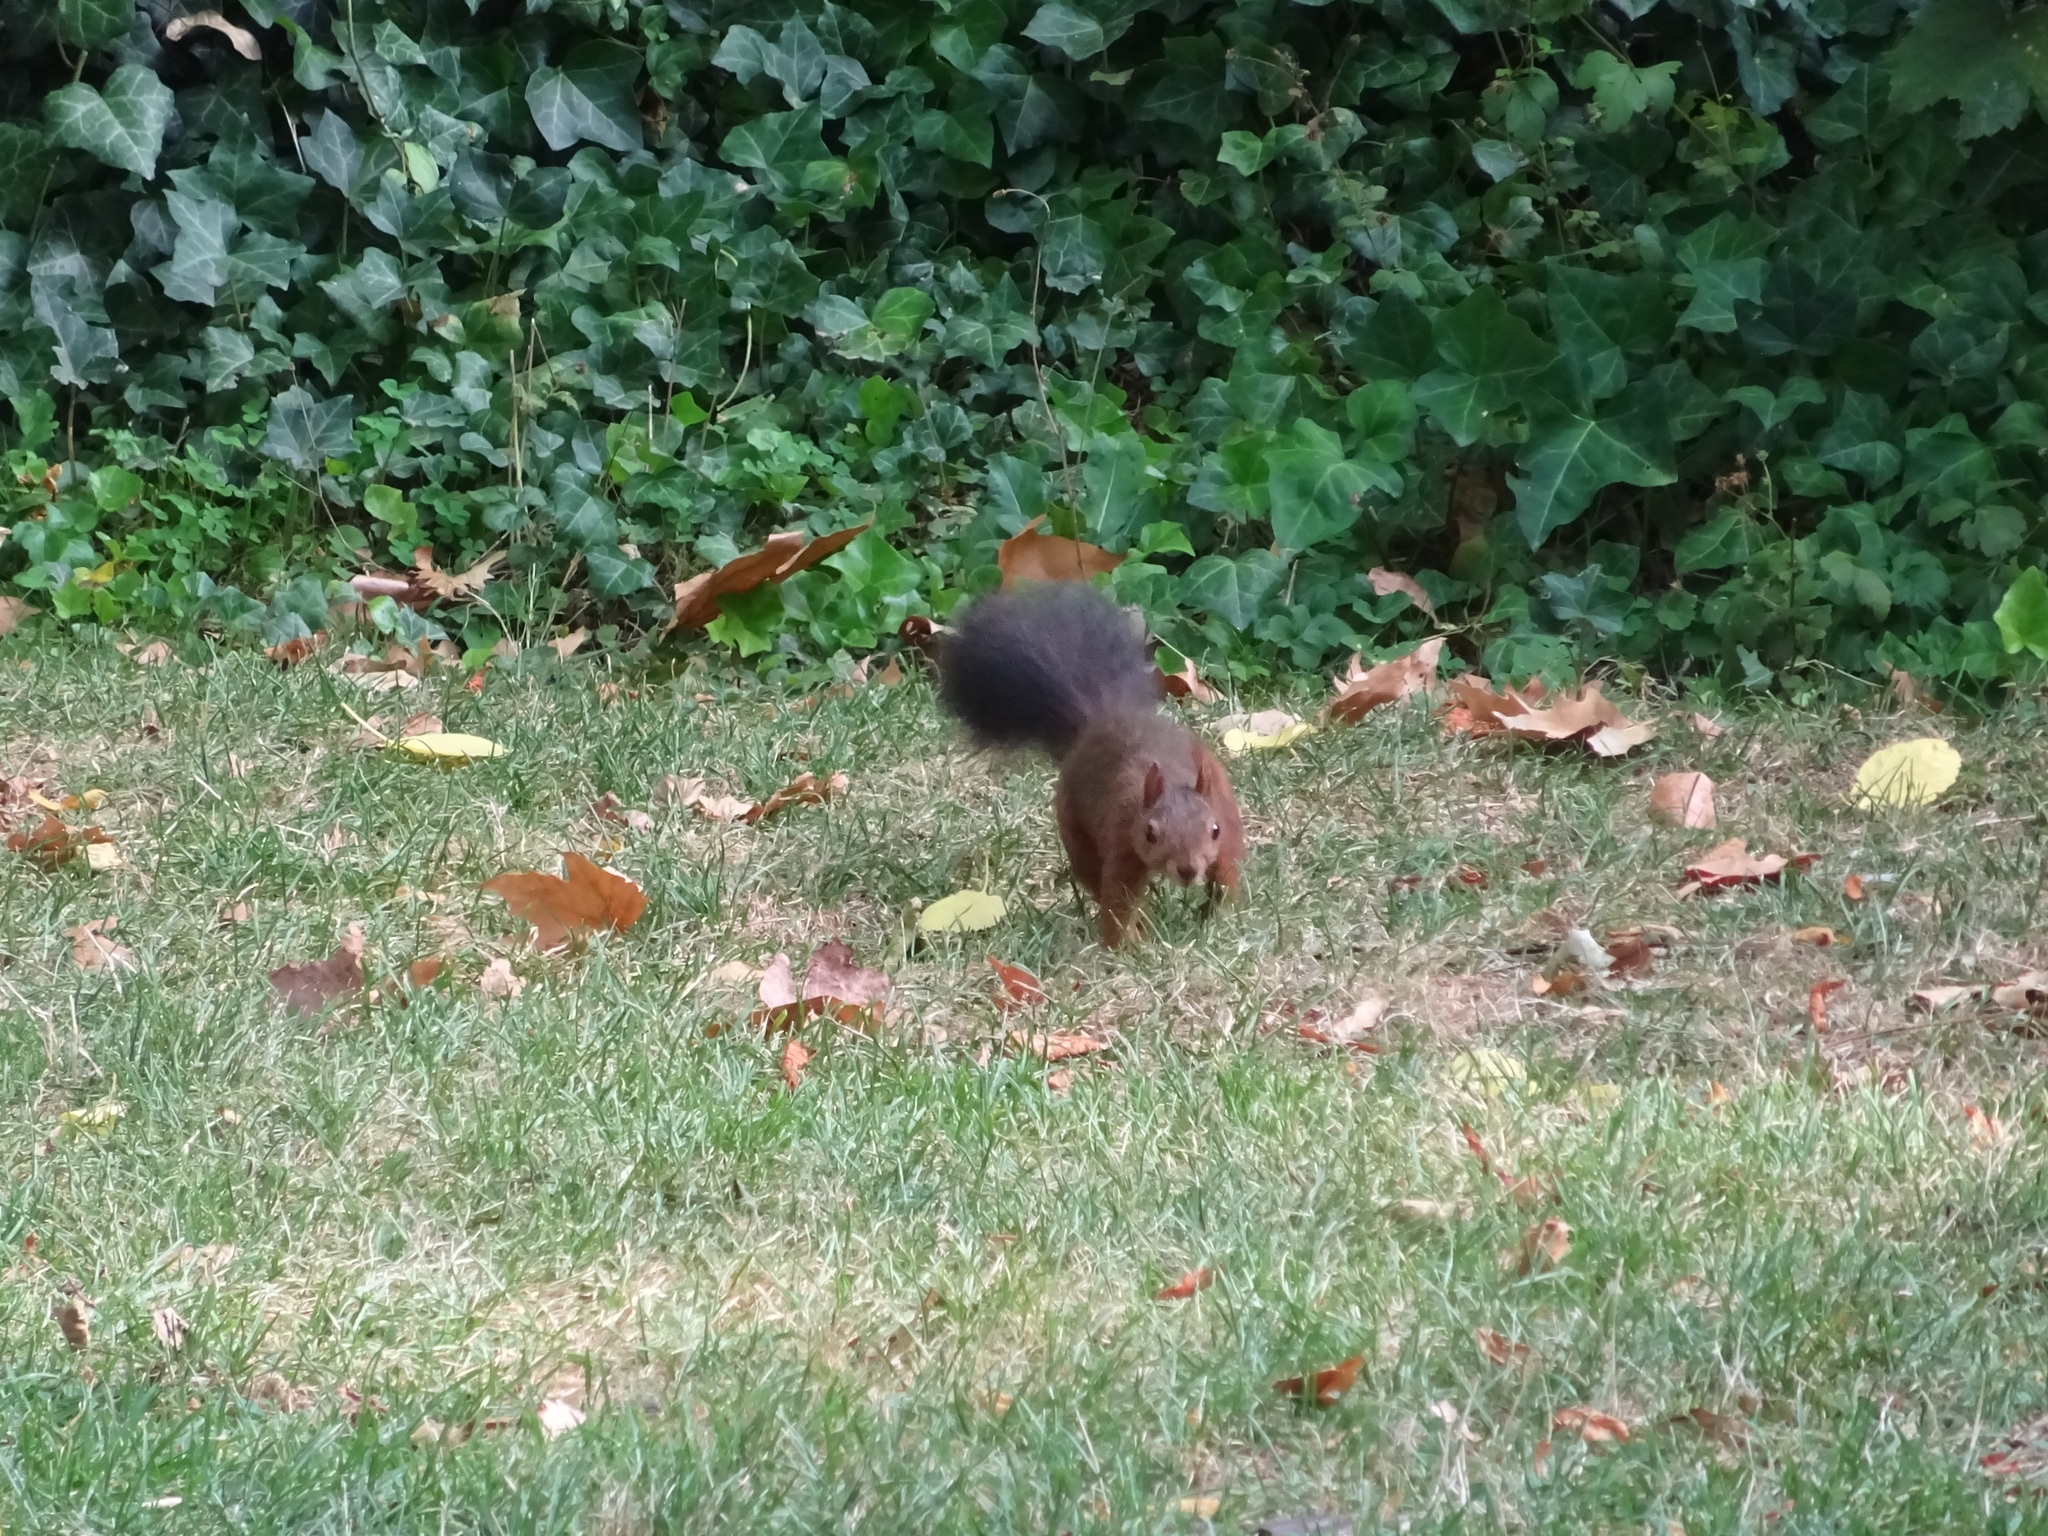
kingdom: Animalia
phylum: Chordata
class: Mammalia
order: Rodentia
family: Sciuridae
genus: Sciurus
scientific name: Sciurus vulgaris
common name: Eurasian red squirrel
